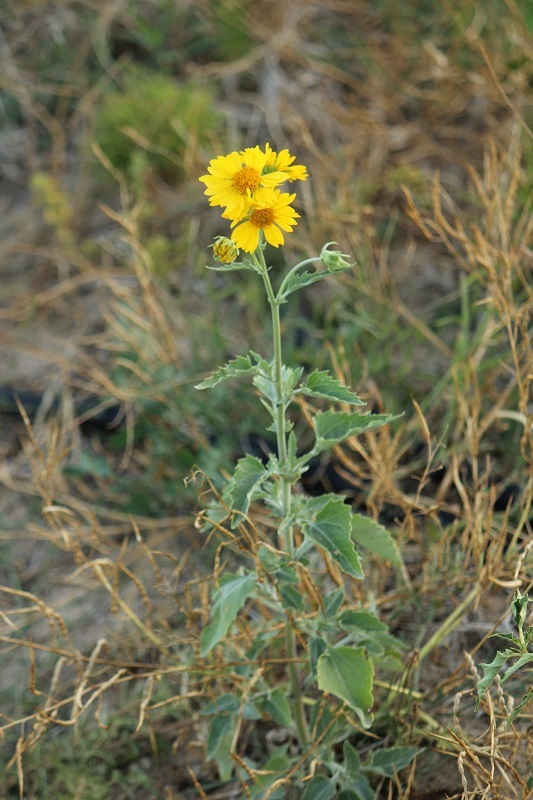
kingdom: Plantae
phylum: Tracheophyta
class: Magnoliopsida
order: Asterales
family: Asteraceae
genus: Verbesina
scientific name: Verbesina encelioides
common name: Golden crownbeard
